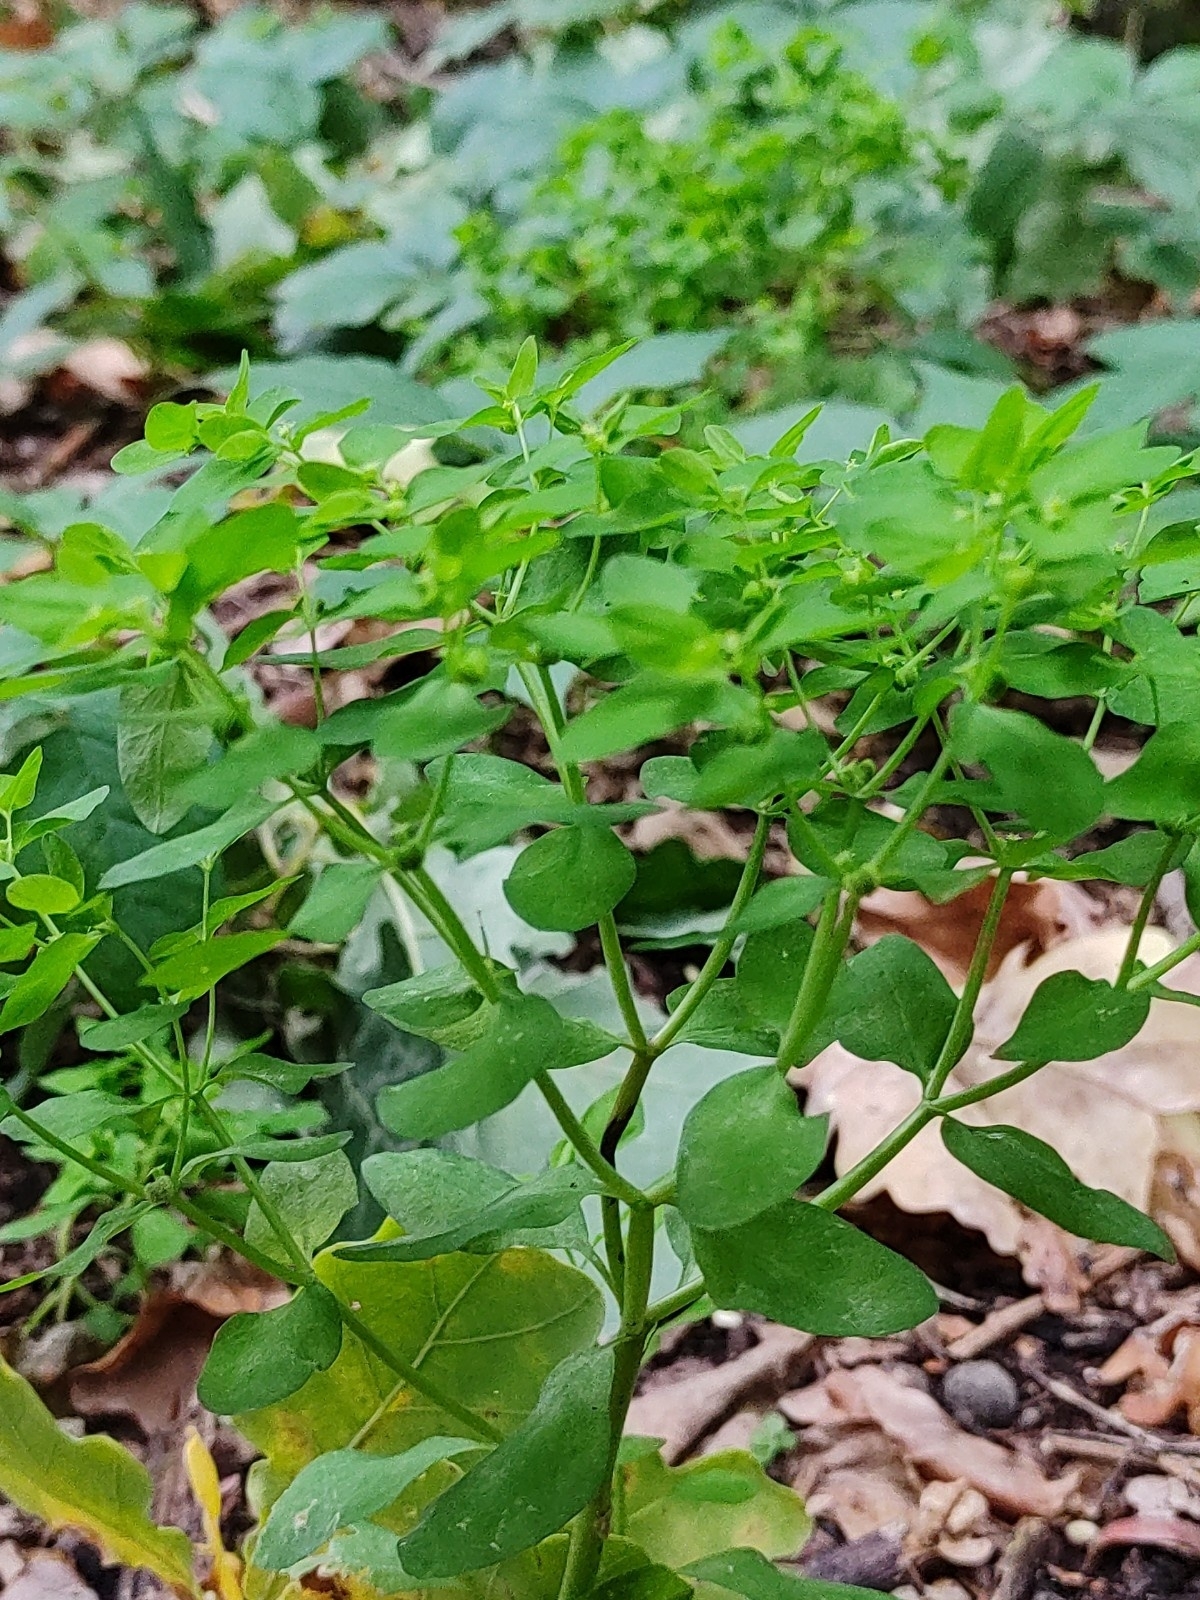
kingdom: Plantae
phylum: Tracheophyta
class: Magnoliopsida
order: Malpighiales
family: Euphorbiaceae
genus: Euphorbia
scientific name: Euphorbia peplus
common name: Petty spurge
